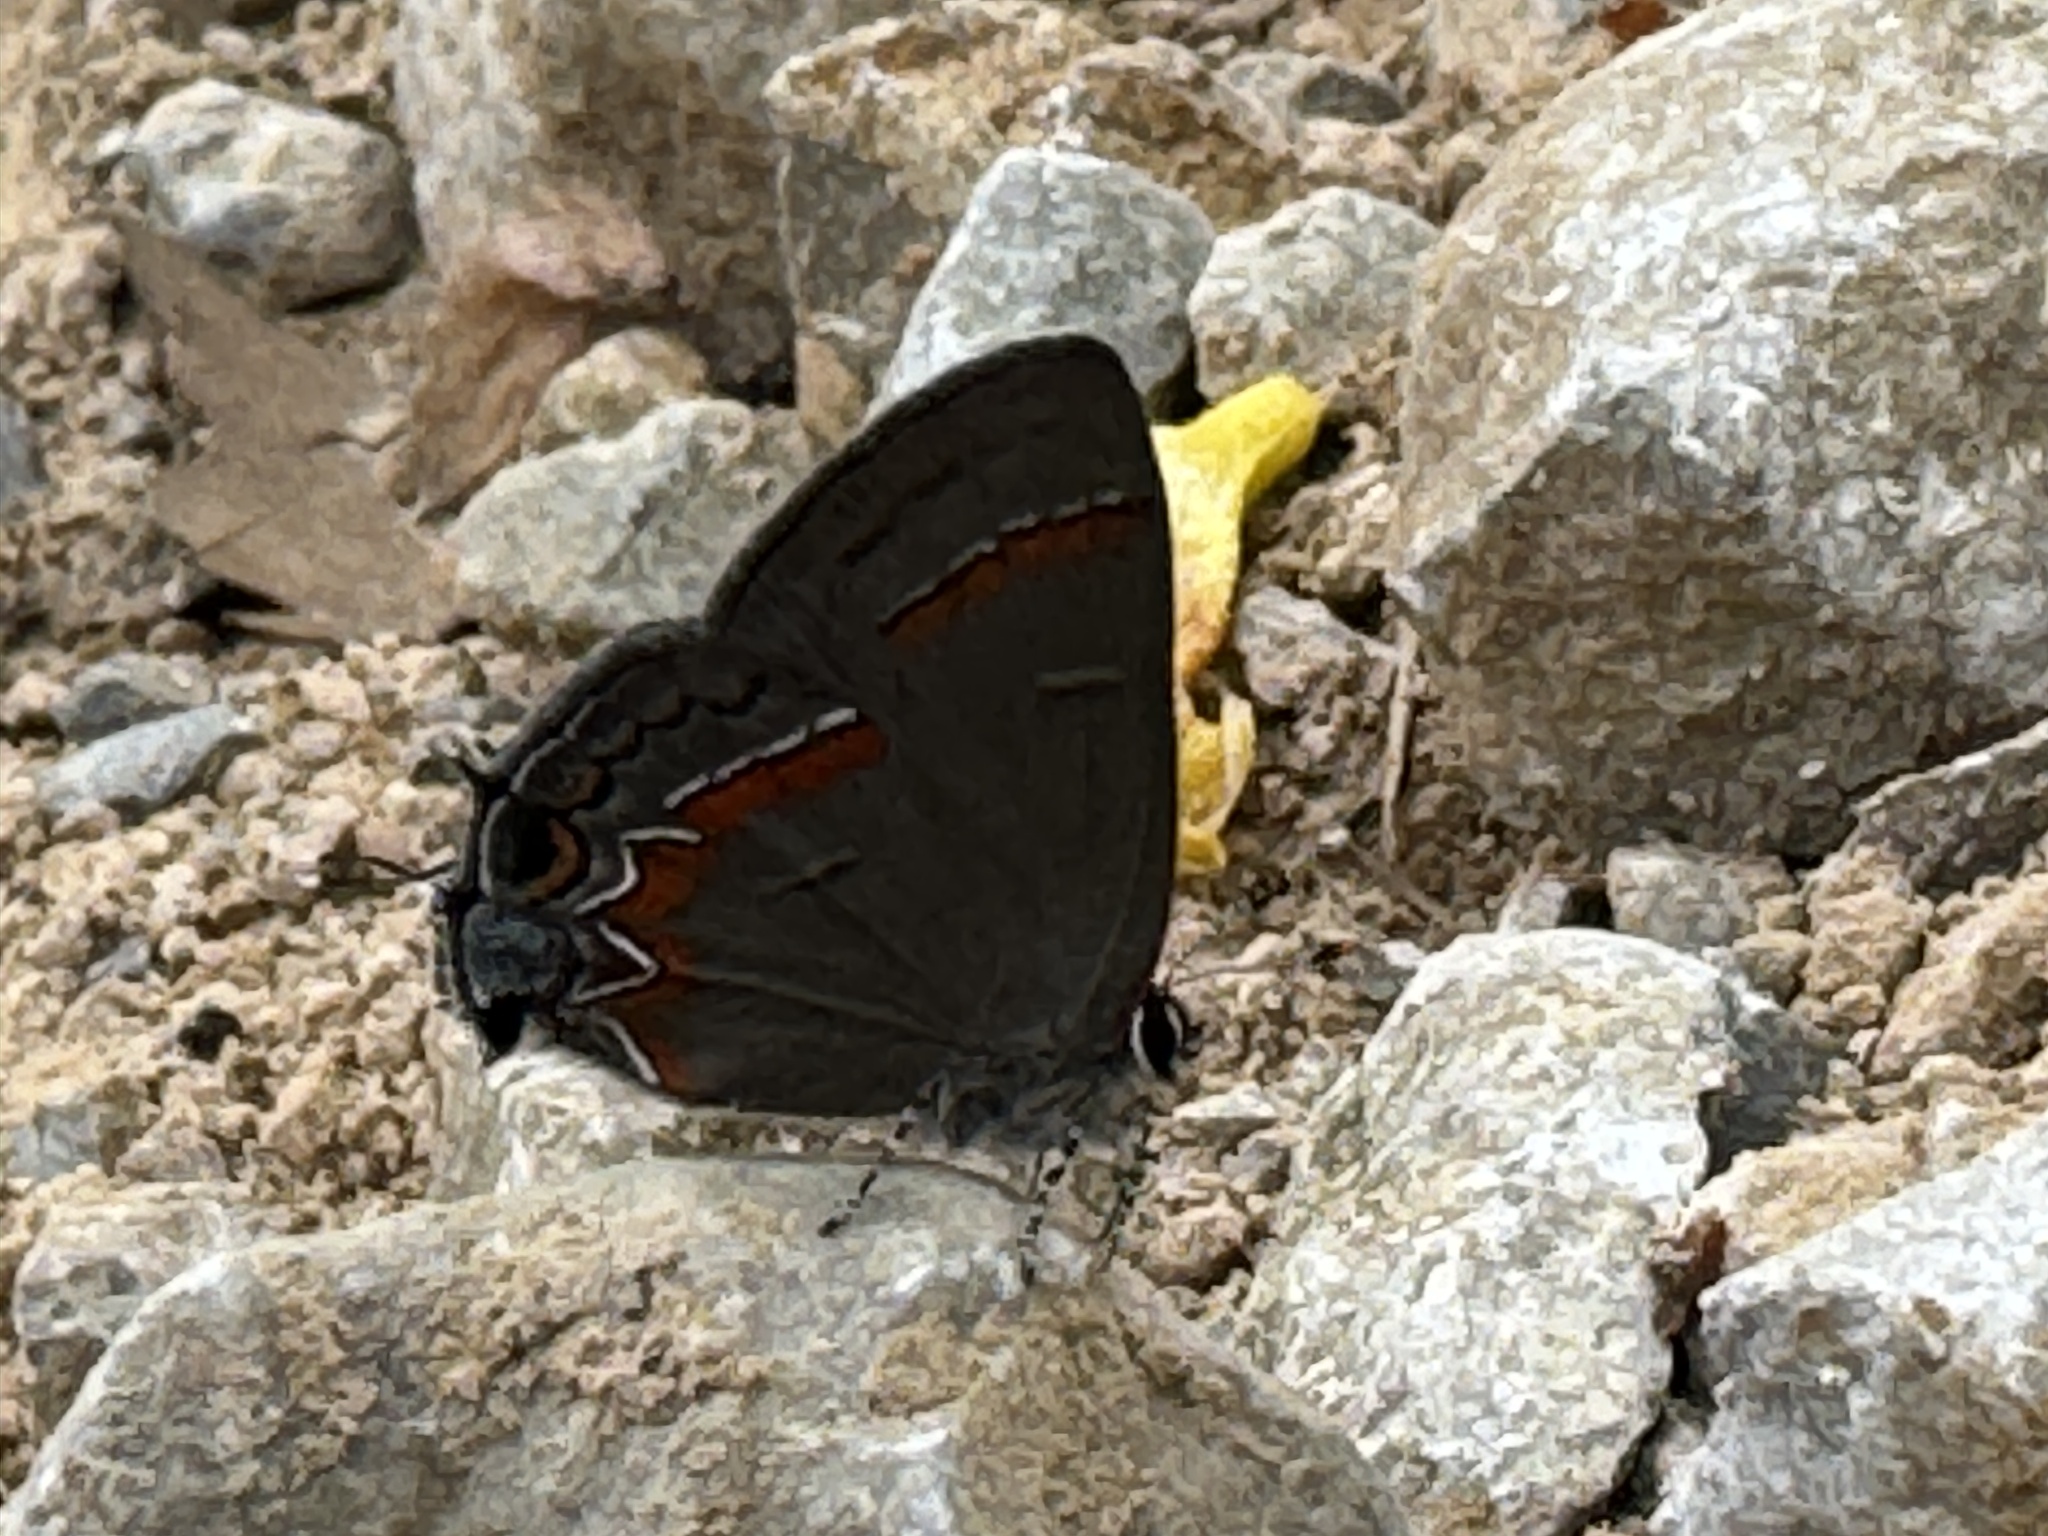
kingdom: Animalia
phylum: Arthropoda
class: Insecta
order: Lepidoptera
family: Lycaenidae
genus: Calycopis
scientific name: Calycopis cecrops
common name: Red-banded hairstreak
